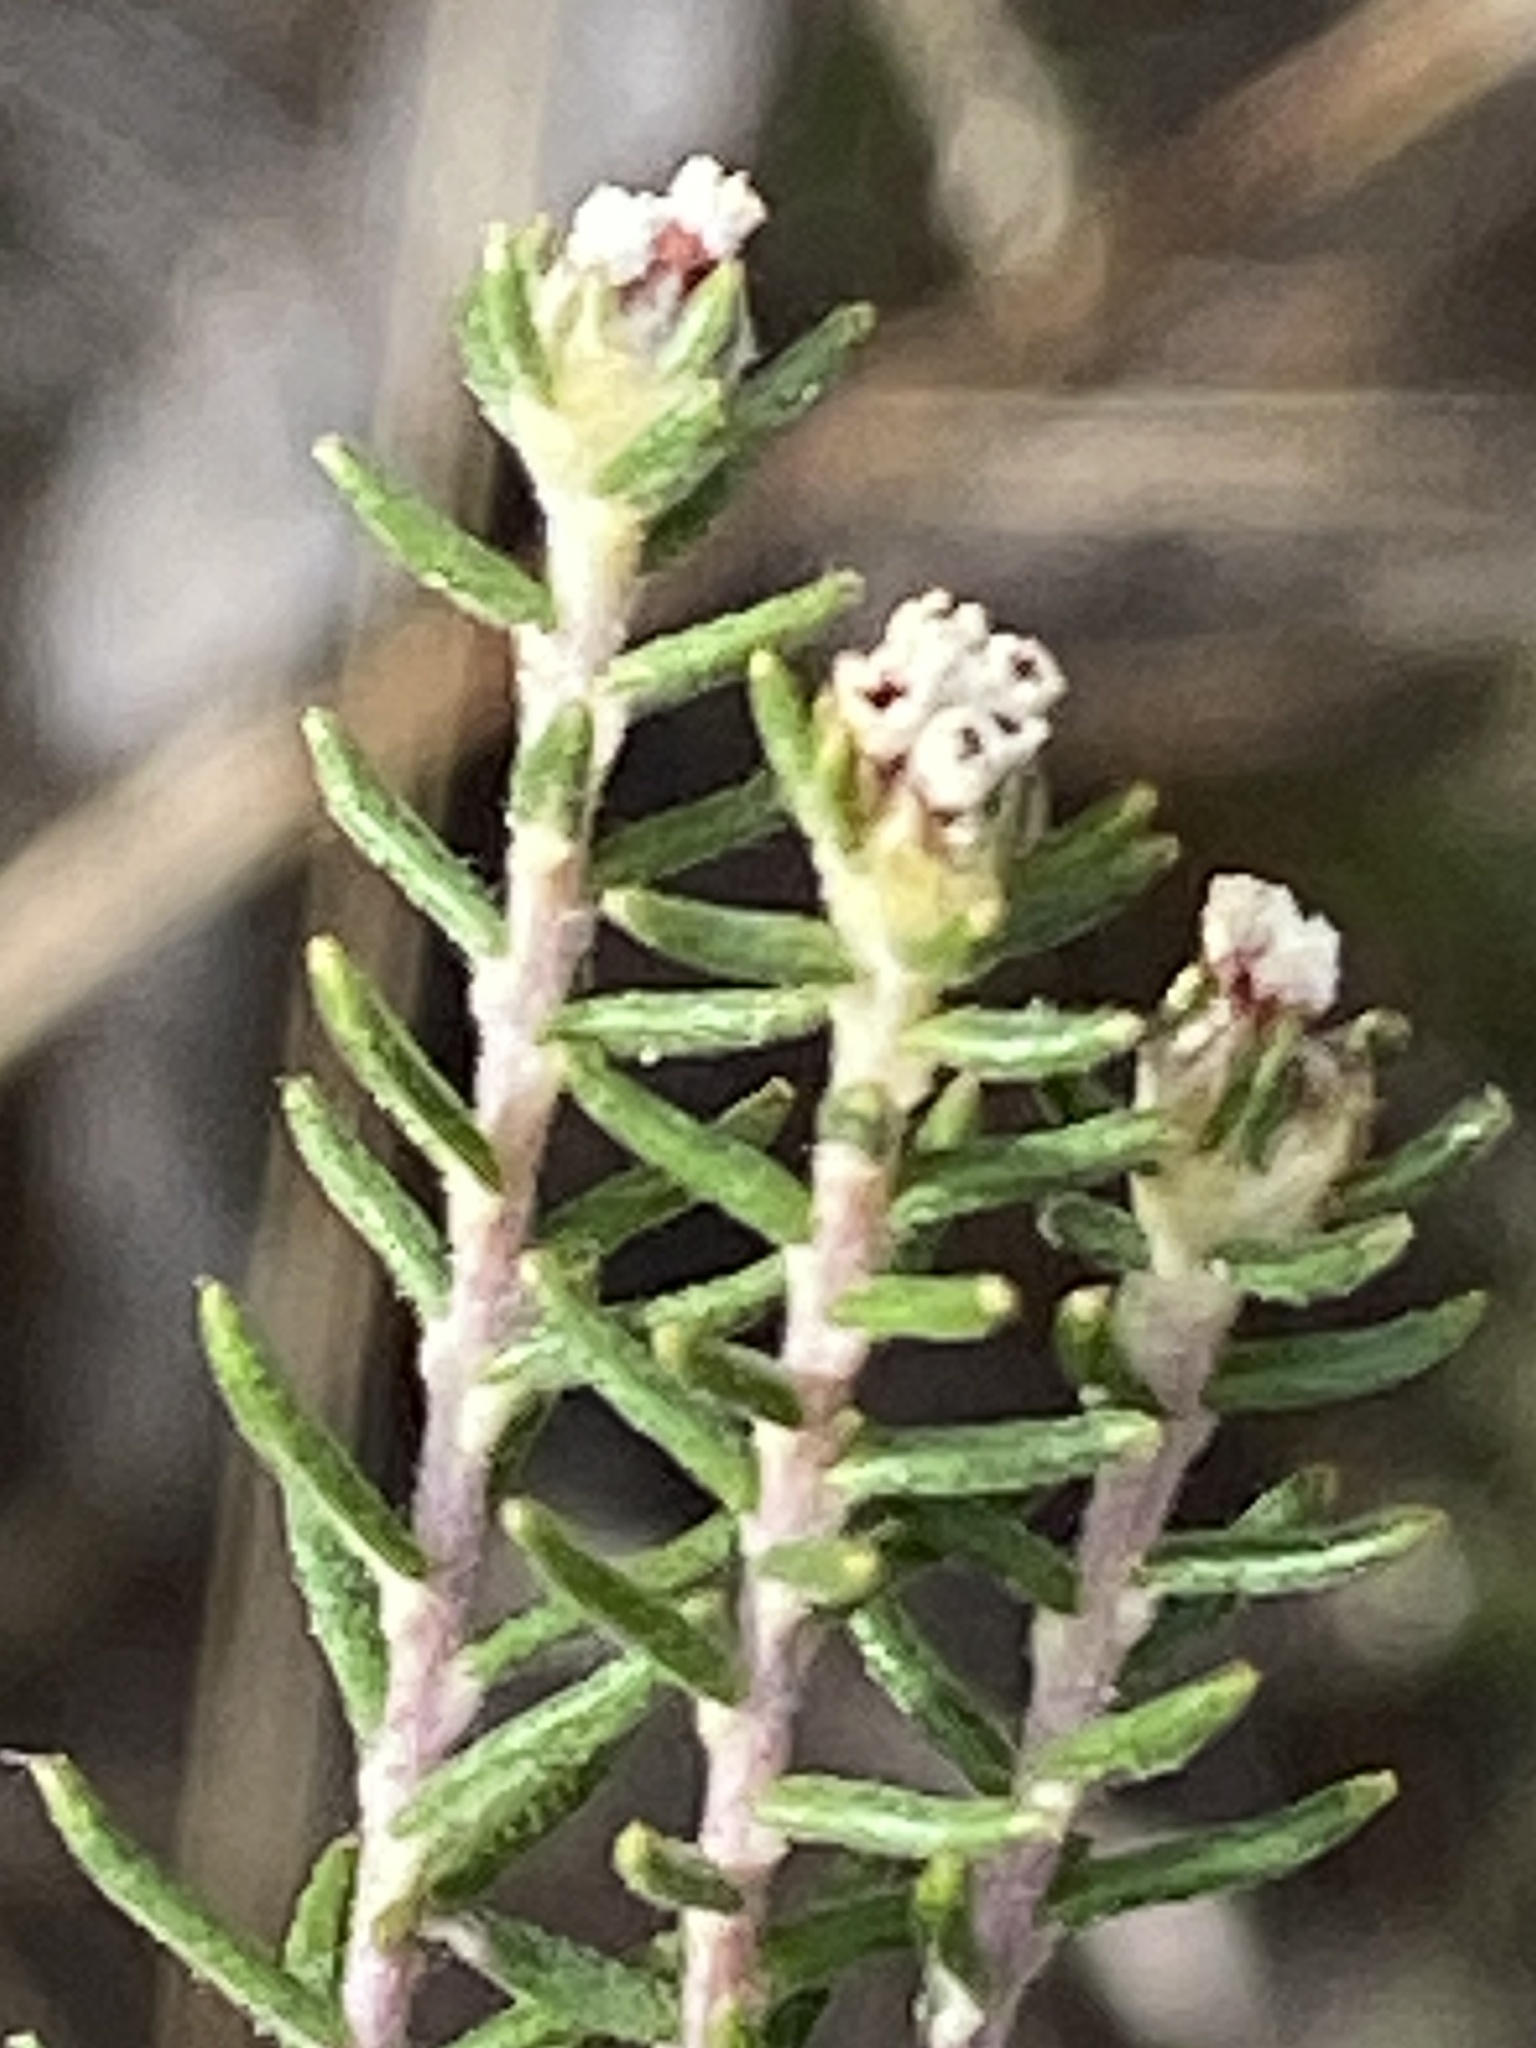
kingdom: Plantae
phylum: Tracheophyta
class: Magnoliopsida
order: Rosales
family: Rhamnaceae
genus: Phylica
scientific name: Phylica karroica
